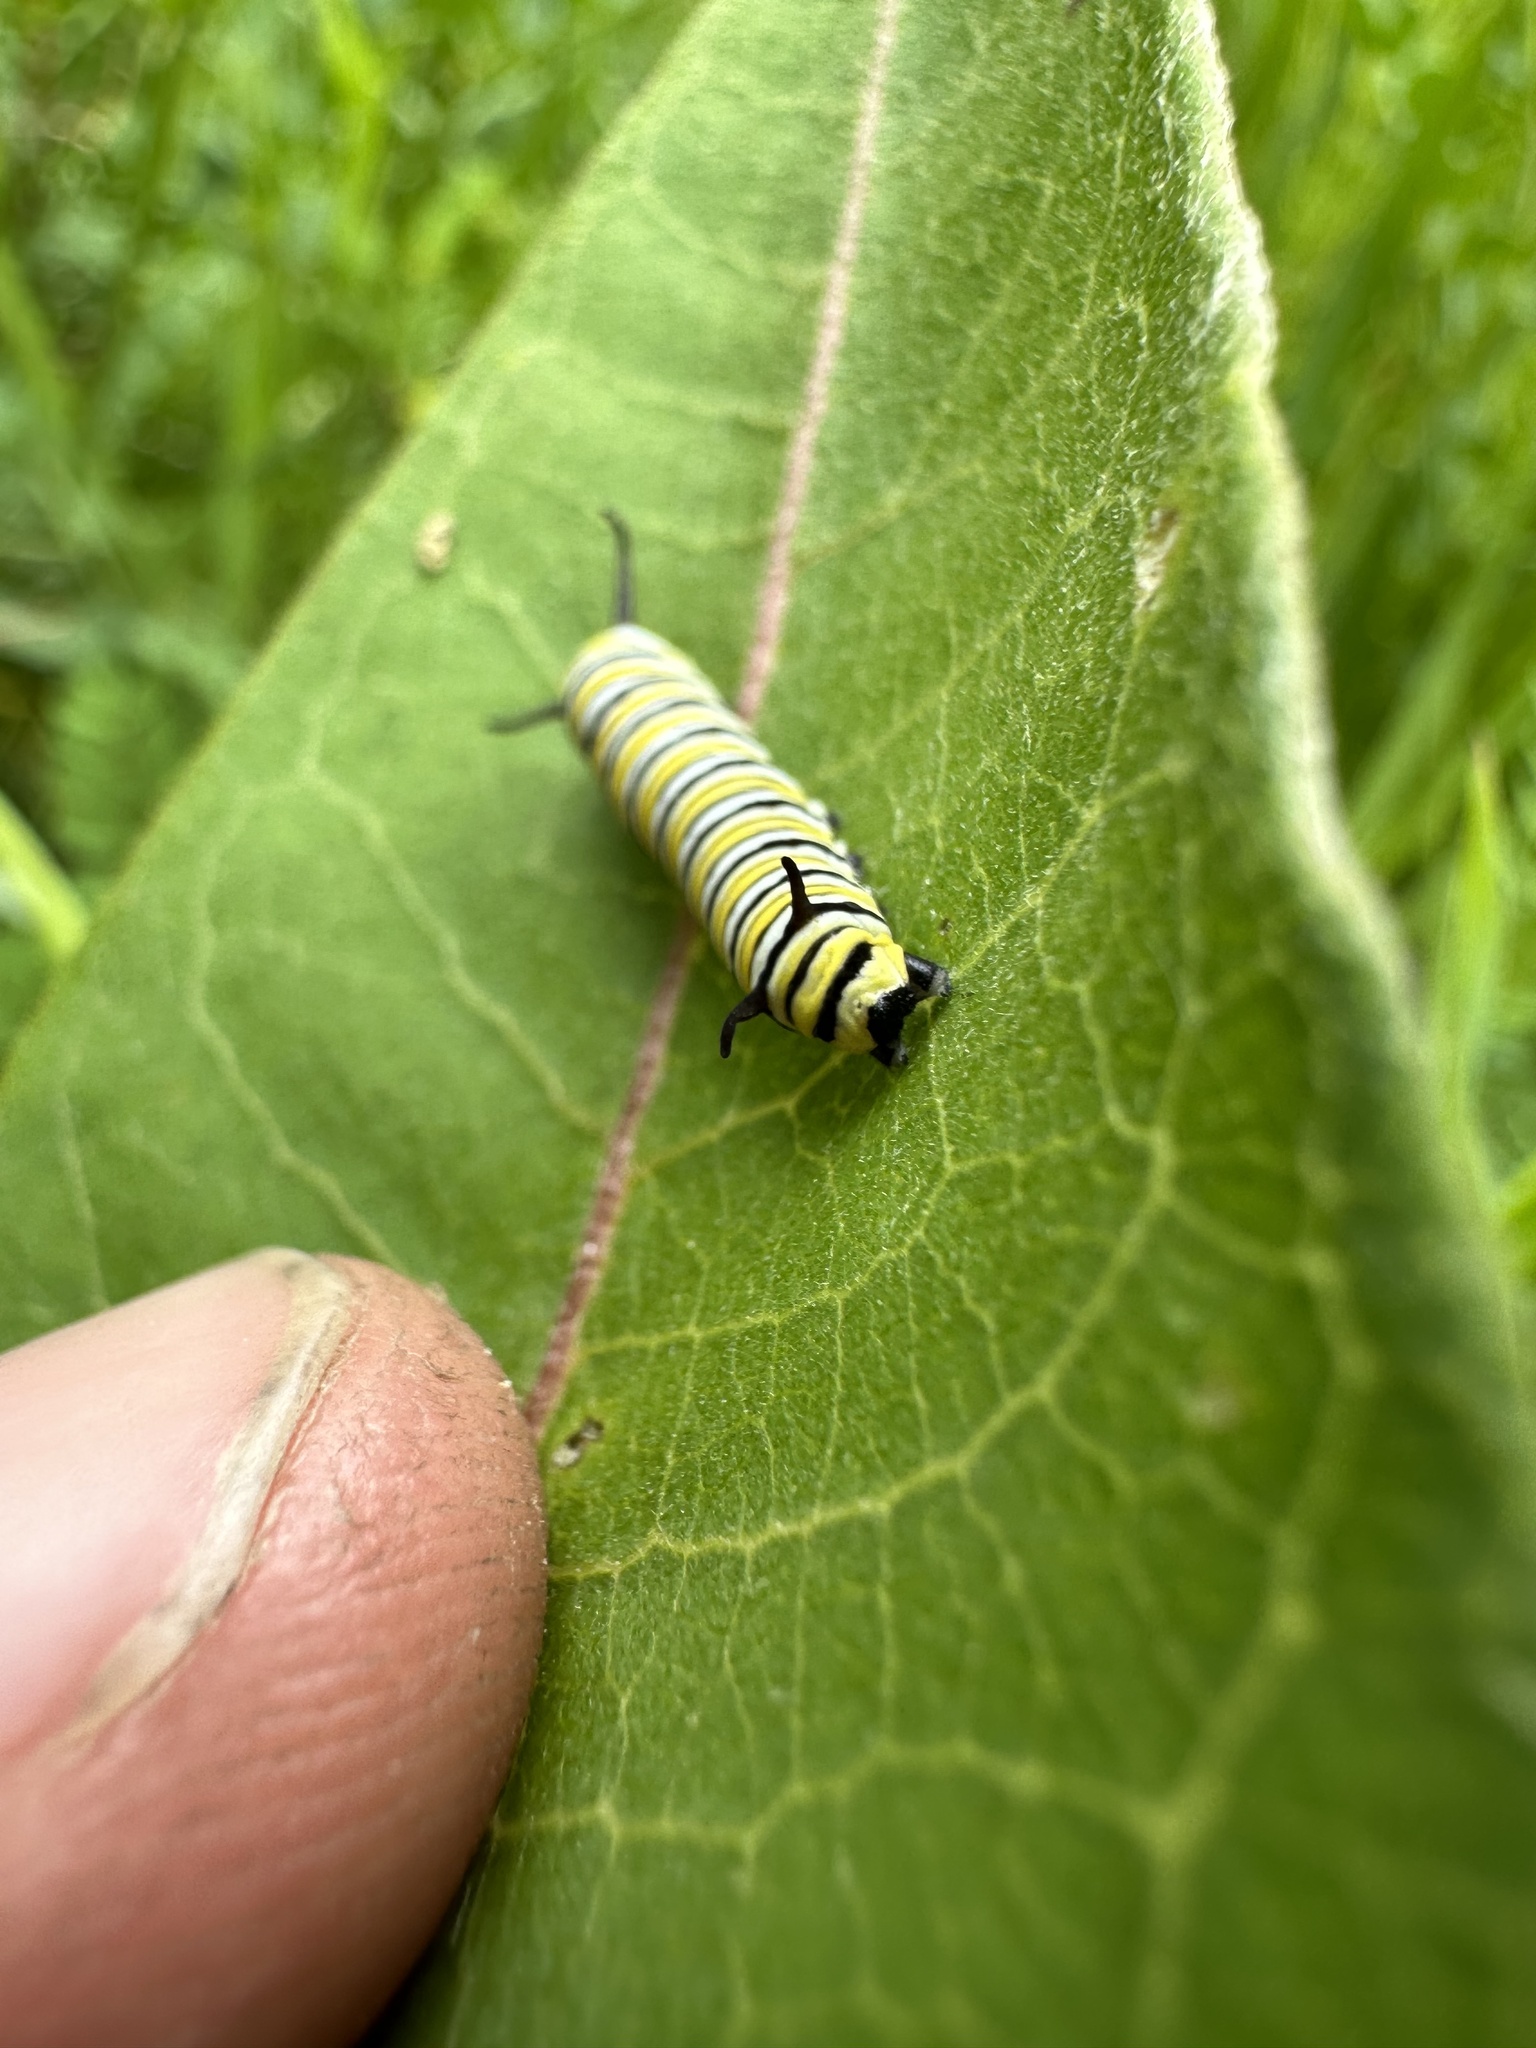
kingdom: Animalia
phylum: Arthropoda
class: Insecta
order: Lepidoptera
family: Nymphalidae
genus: Danaus
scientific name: Danaus plexippus
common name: Monarch
